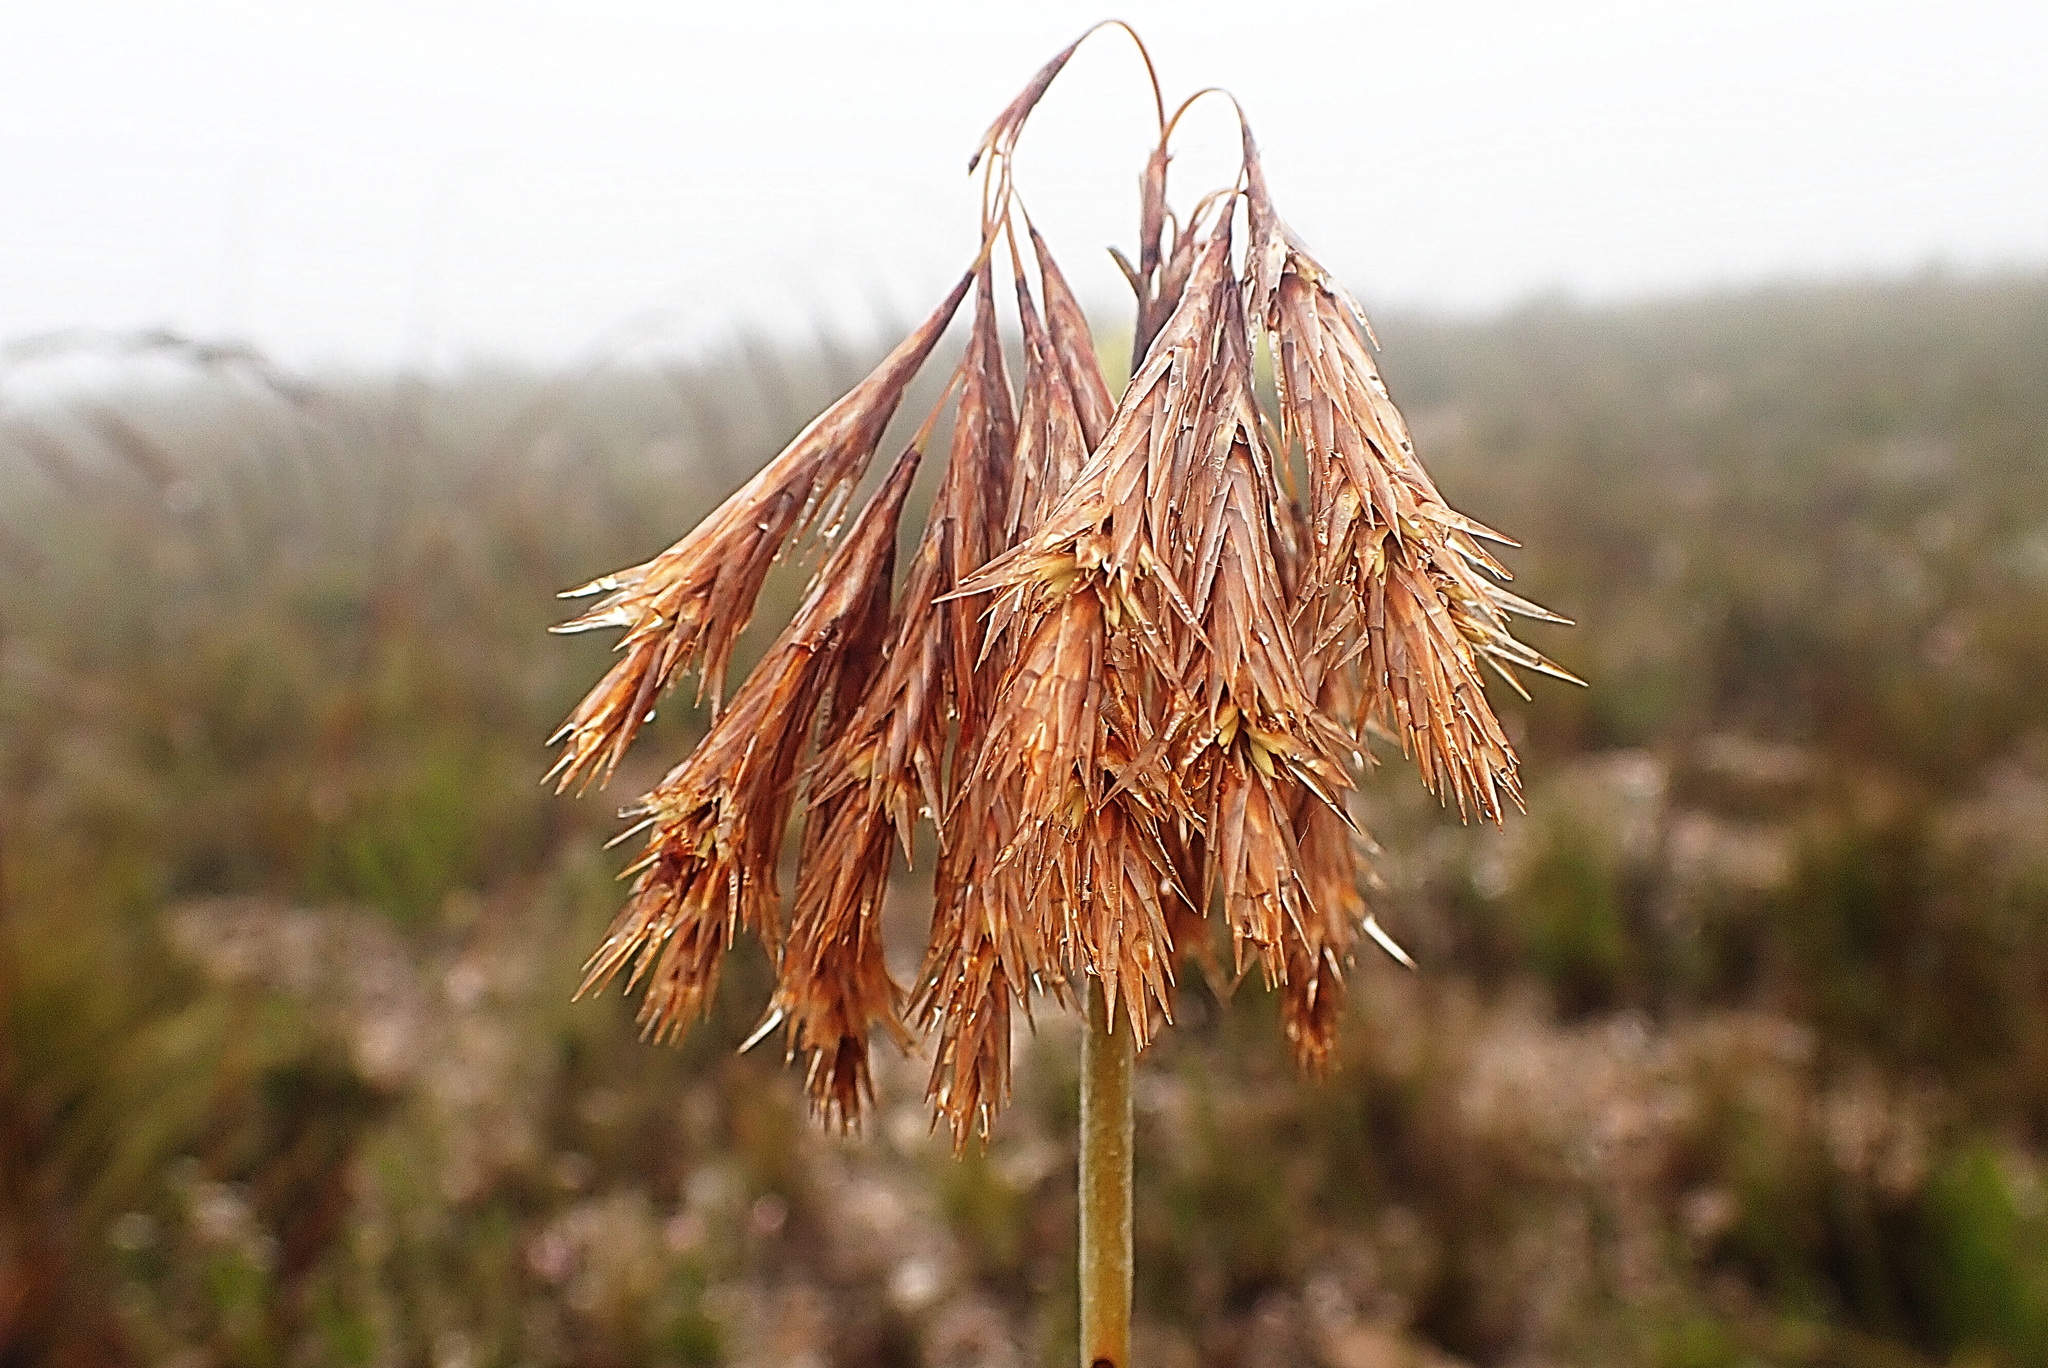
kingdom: Plantae
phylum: Tracheophyta
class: Liliopsida
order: Poales
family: Restionaceae
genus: Thamnochortus
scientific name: Thamnochortus cinereus
